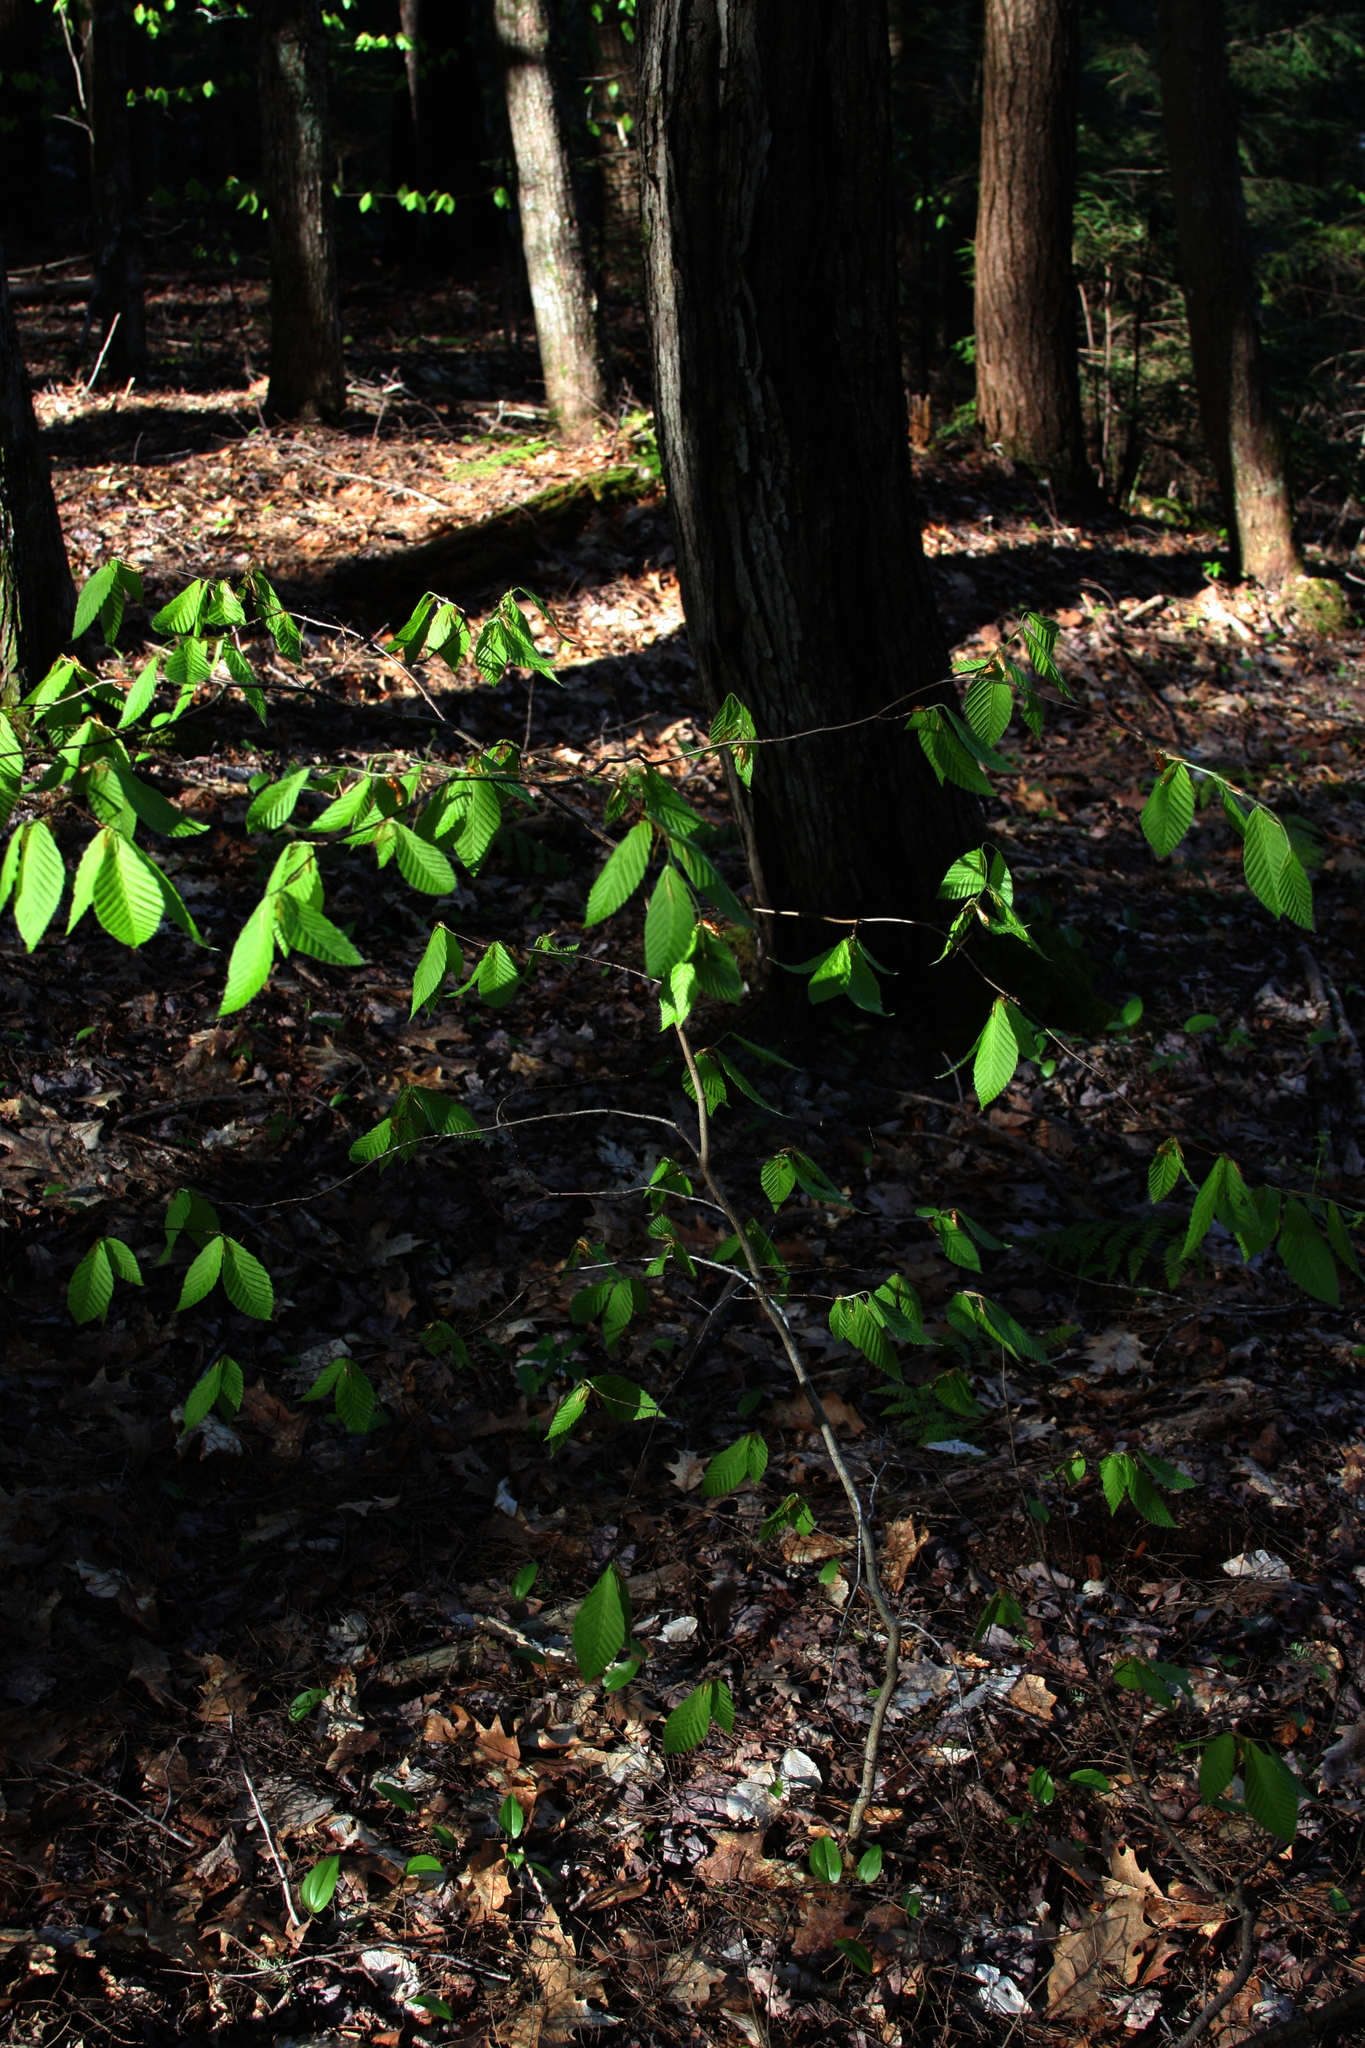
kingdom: Plantae
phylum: Tracheophyta
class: Magnoliopsida
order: Fagales
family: Fagaceae
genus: Fagus
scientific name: Fagus grandifolia
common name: American beech
